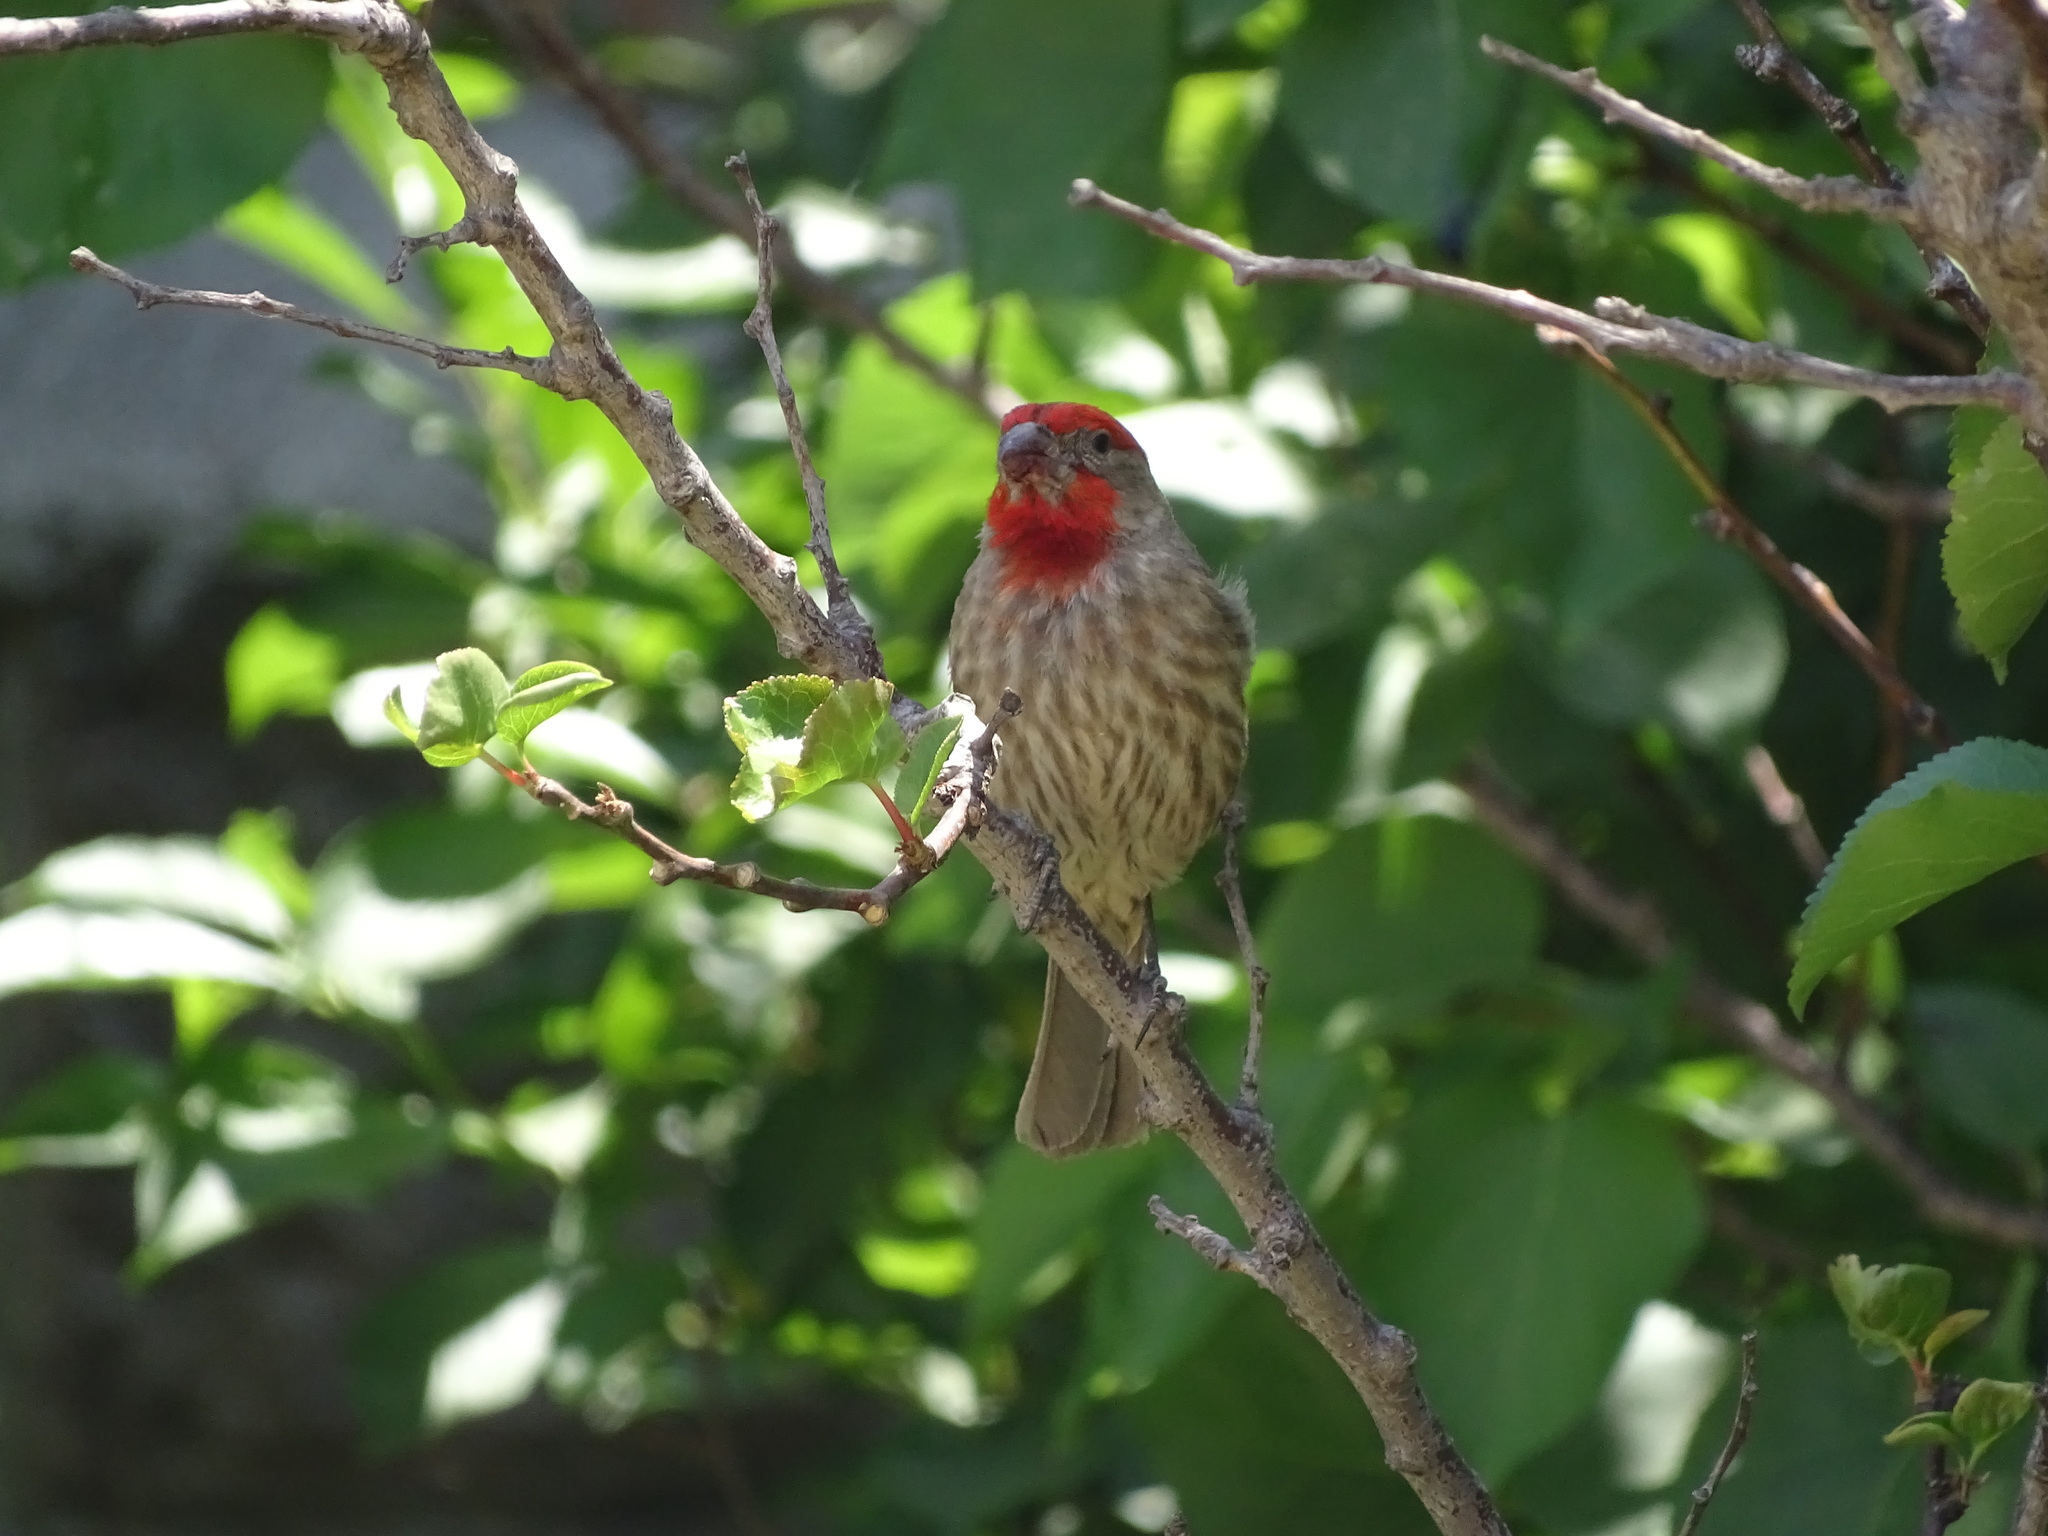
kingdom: Animalia
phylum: Chordata
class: Aves
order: Passeriformes
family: Fringillidae
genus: Haemorhous
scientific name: Haemorhous mexicanus
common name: House finch
